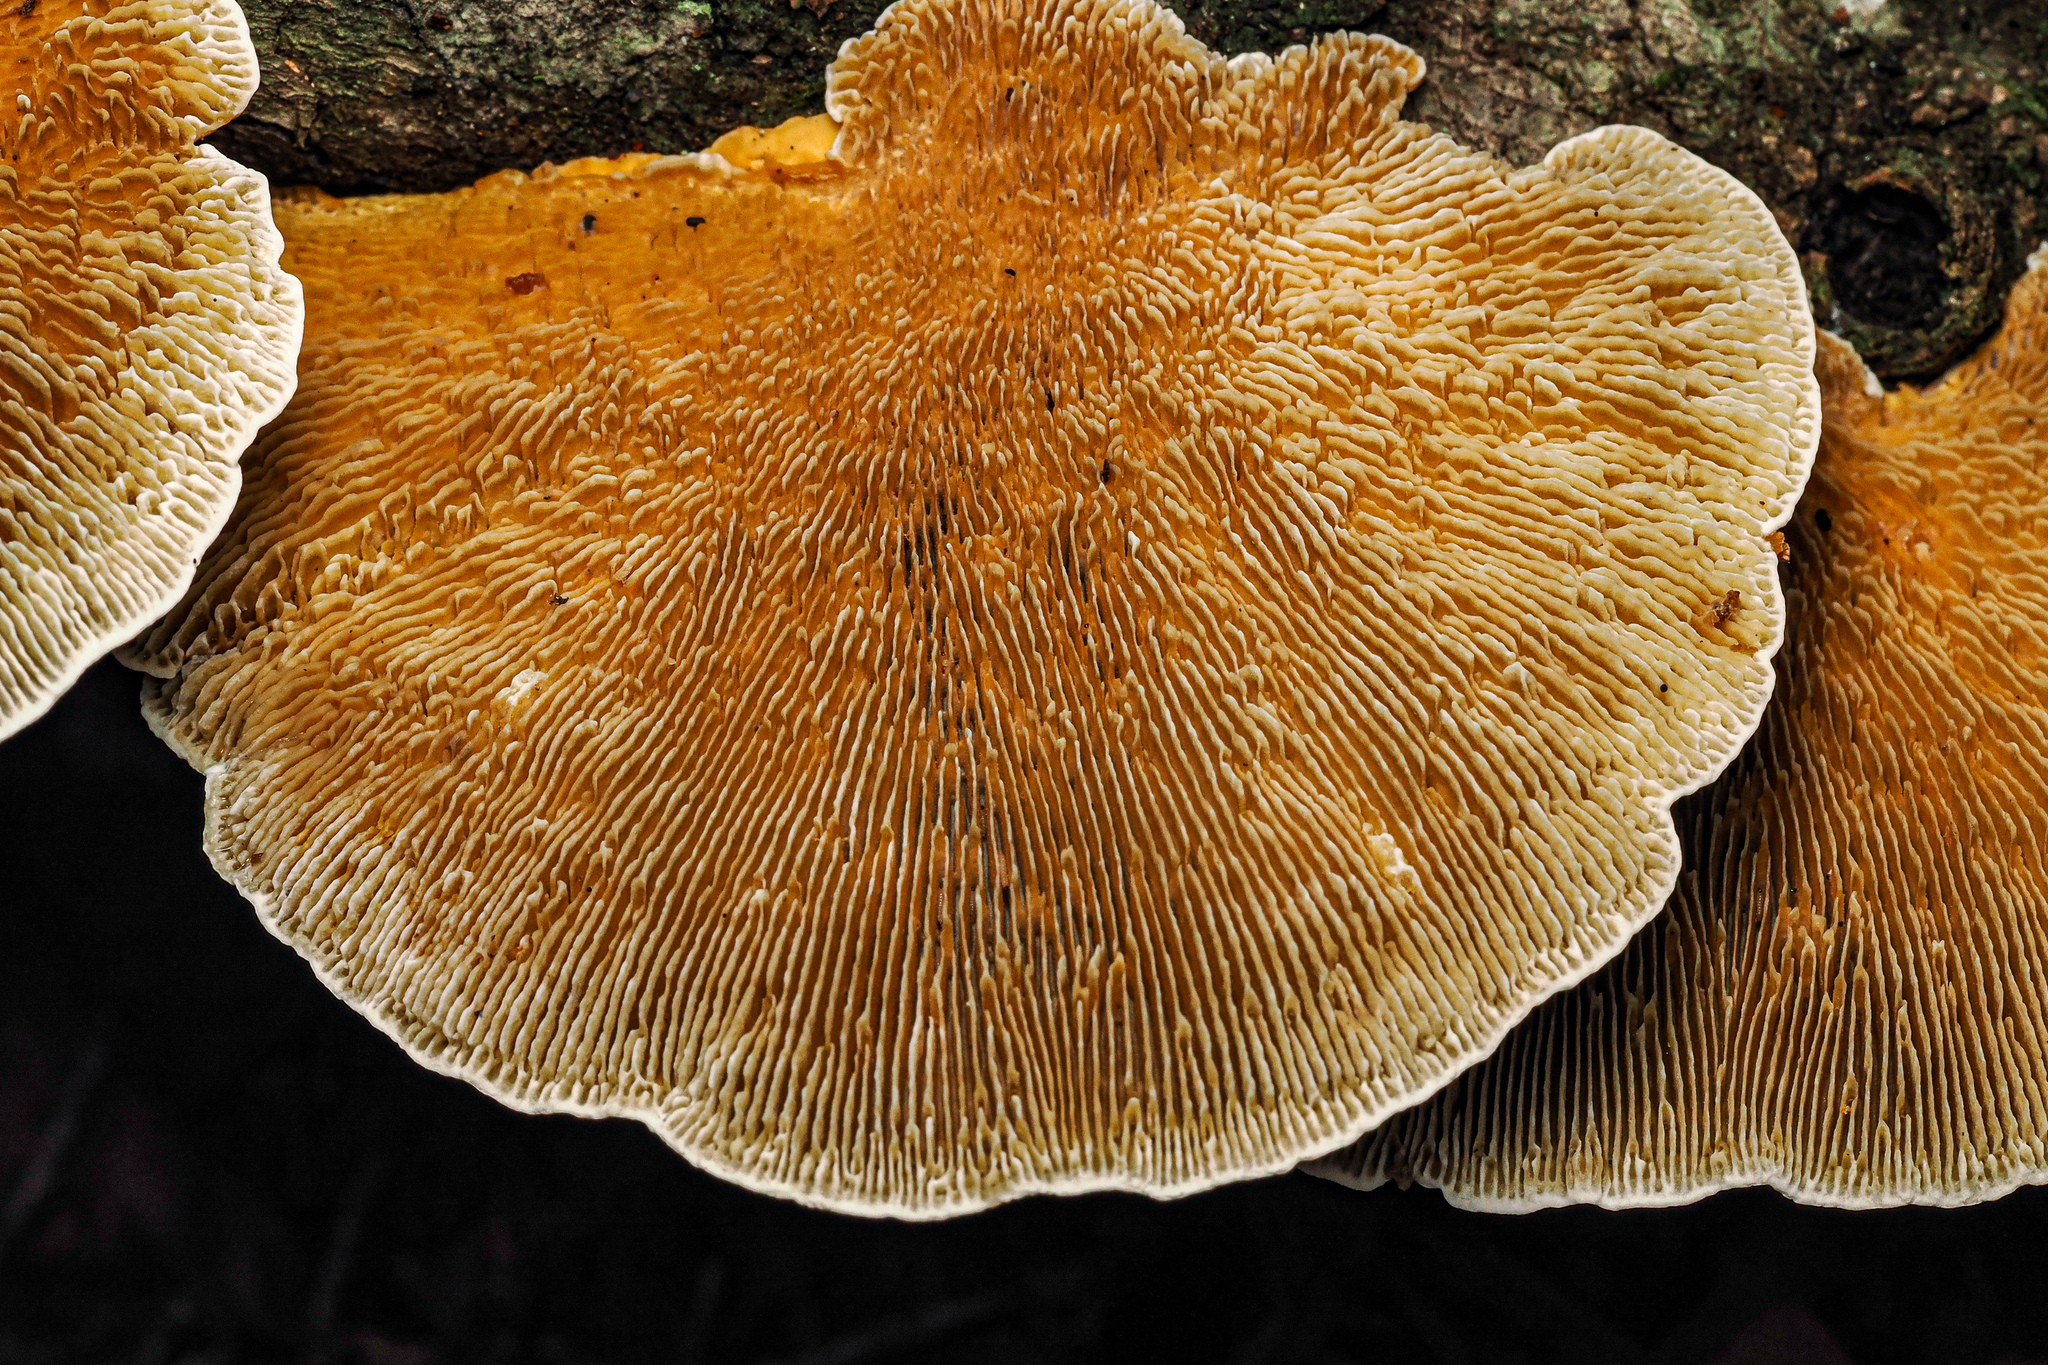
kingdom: Fungi
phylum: Basidiomycota
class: Agaricomycetes
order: Polyporales
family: Polyporaceae
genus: Daedaleopsis
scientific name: Daedaleopsis confragosa
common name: Blushing bracket
